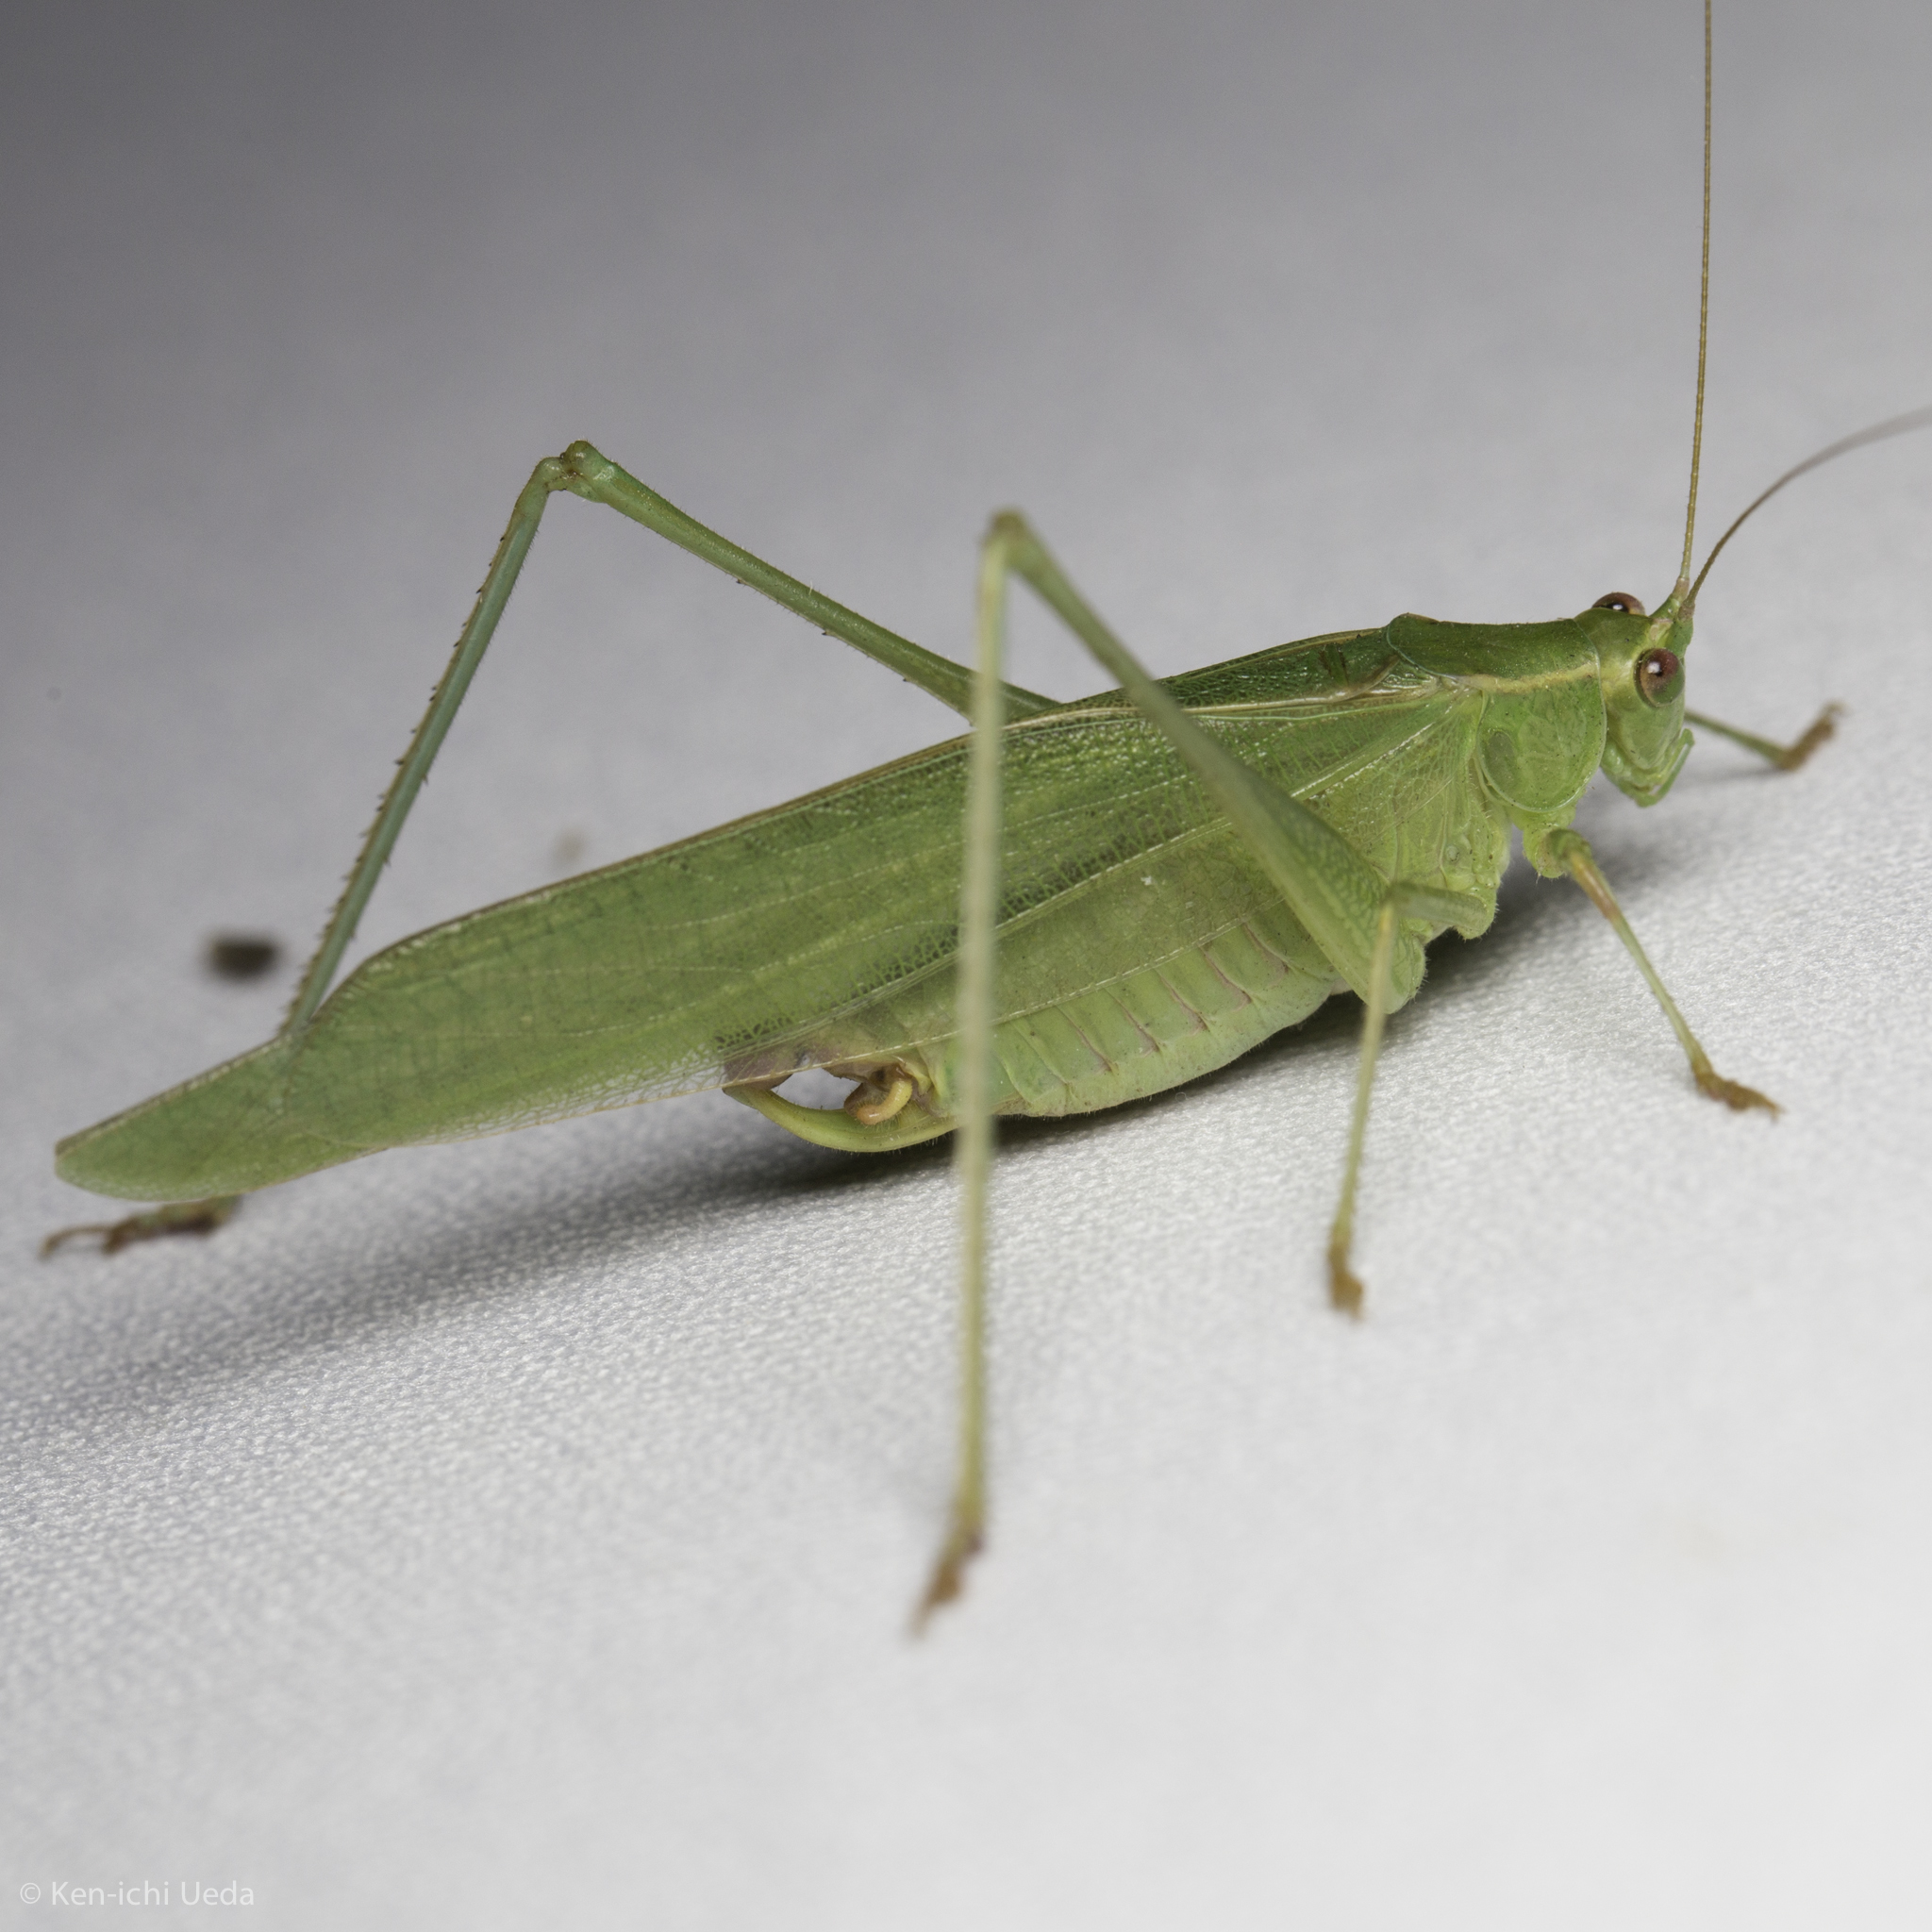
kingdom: Animalia
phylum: Arthropoda
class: Insecta
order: Orthoptera
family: Tettigoniidae
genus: Scudderia
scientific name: Scudderia furcata
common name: Fork-tailed bush katydid
